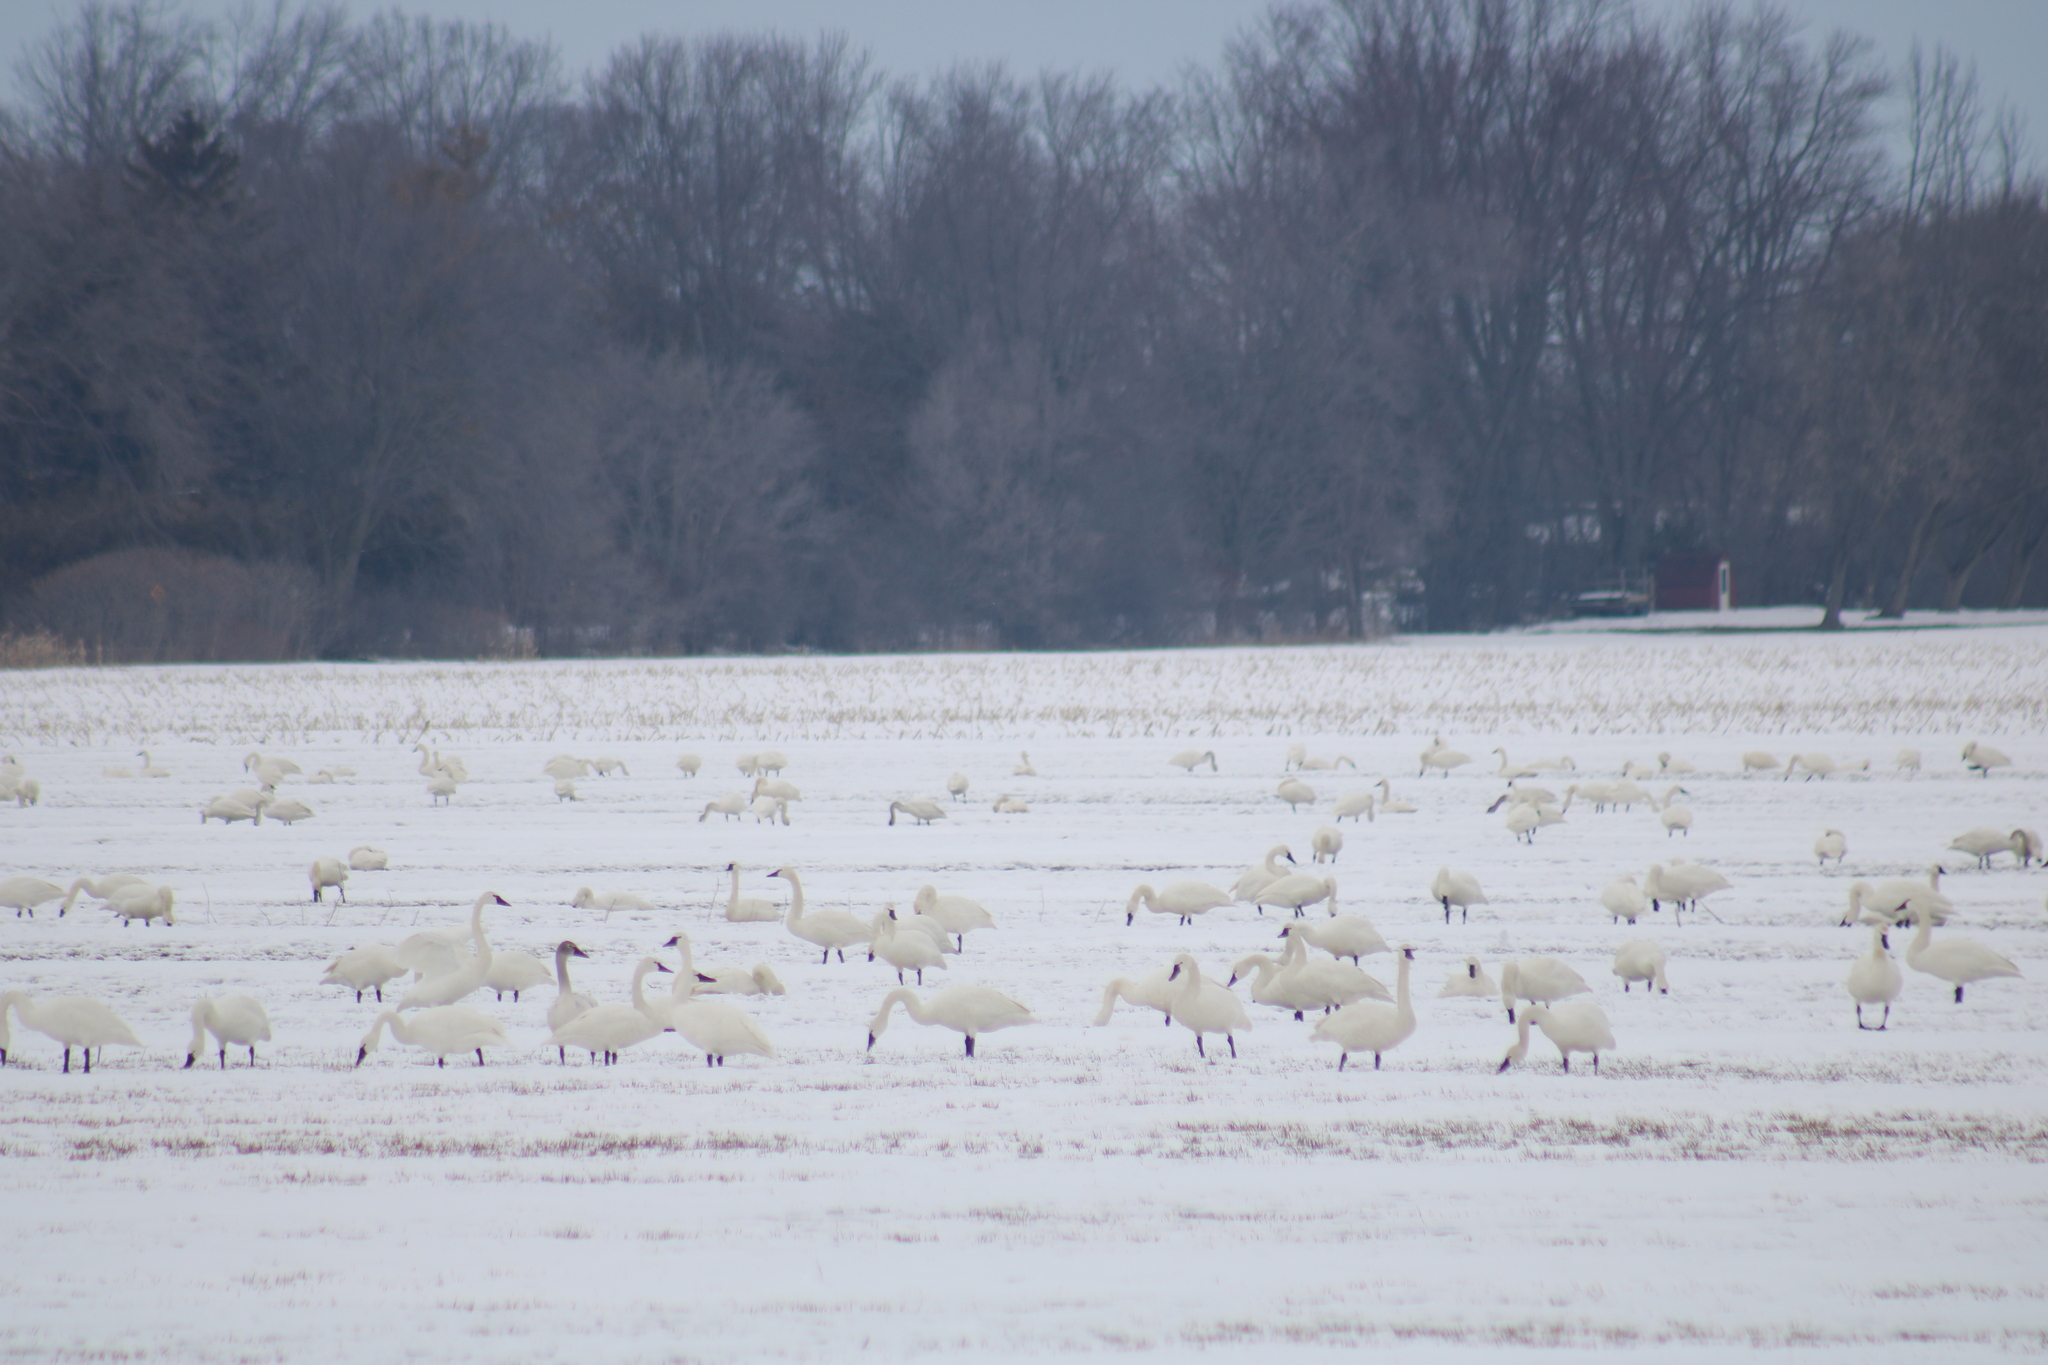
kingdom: Animalia
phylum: Chordata
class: Aves
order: Anseriformes
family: Anatidae
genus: Cygnus
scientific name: Cygnus columbianus
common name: Tundra swan
